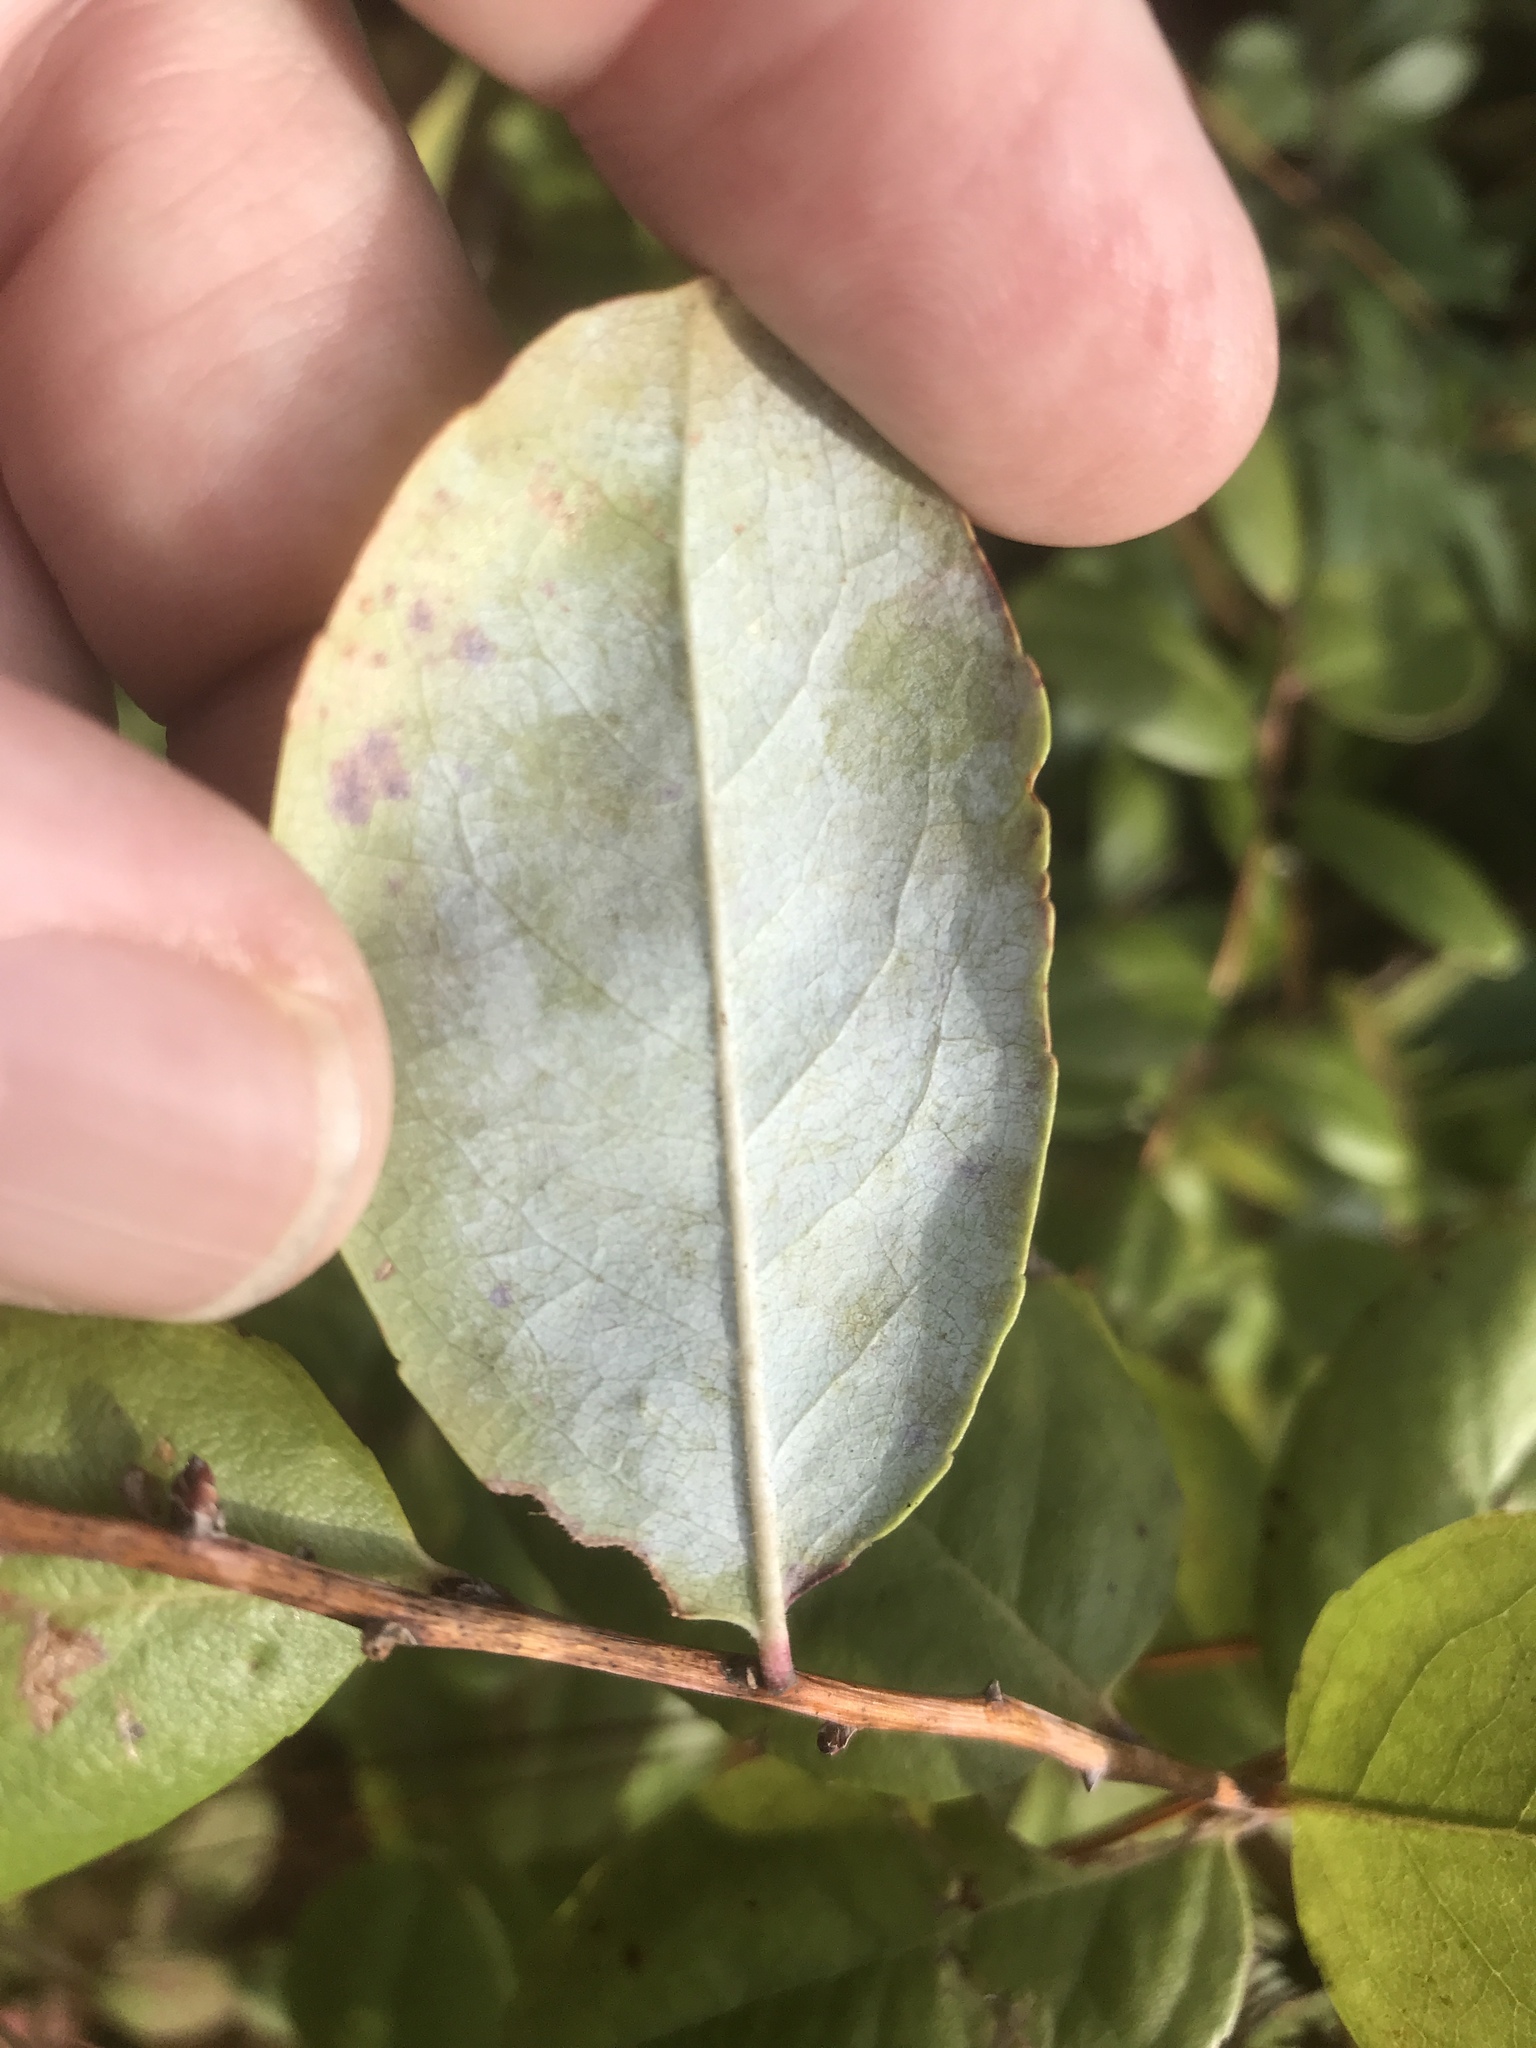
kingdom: Plantae
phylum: Tracheophyta
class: Magnoliopsida
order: Ericales
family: Ericaceae
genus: Zenobia
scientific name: Zenobia pulverulenta
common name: Zenobia
